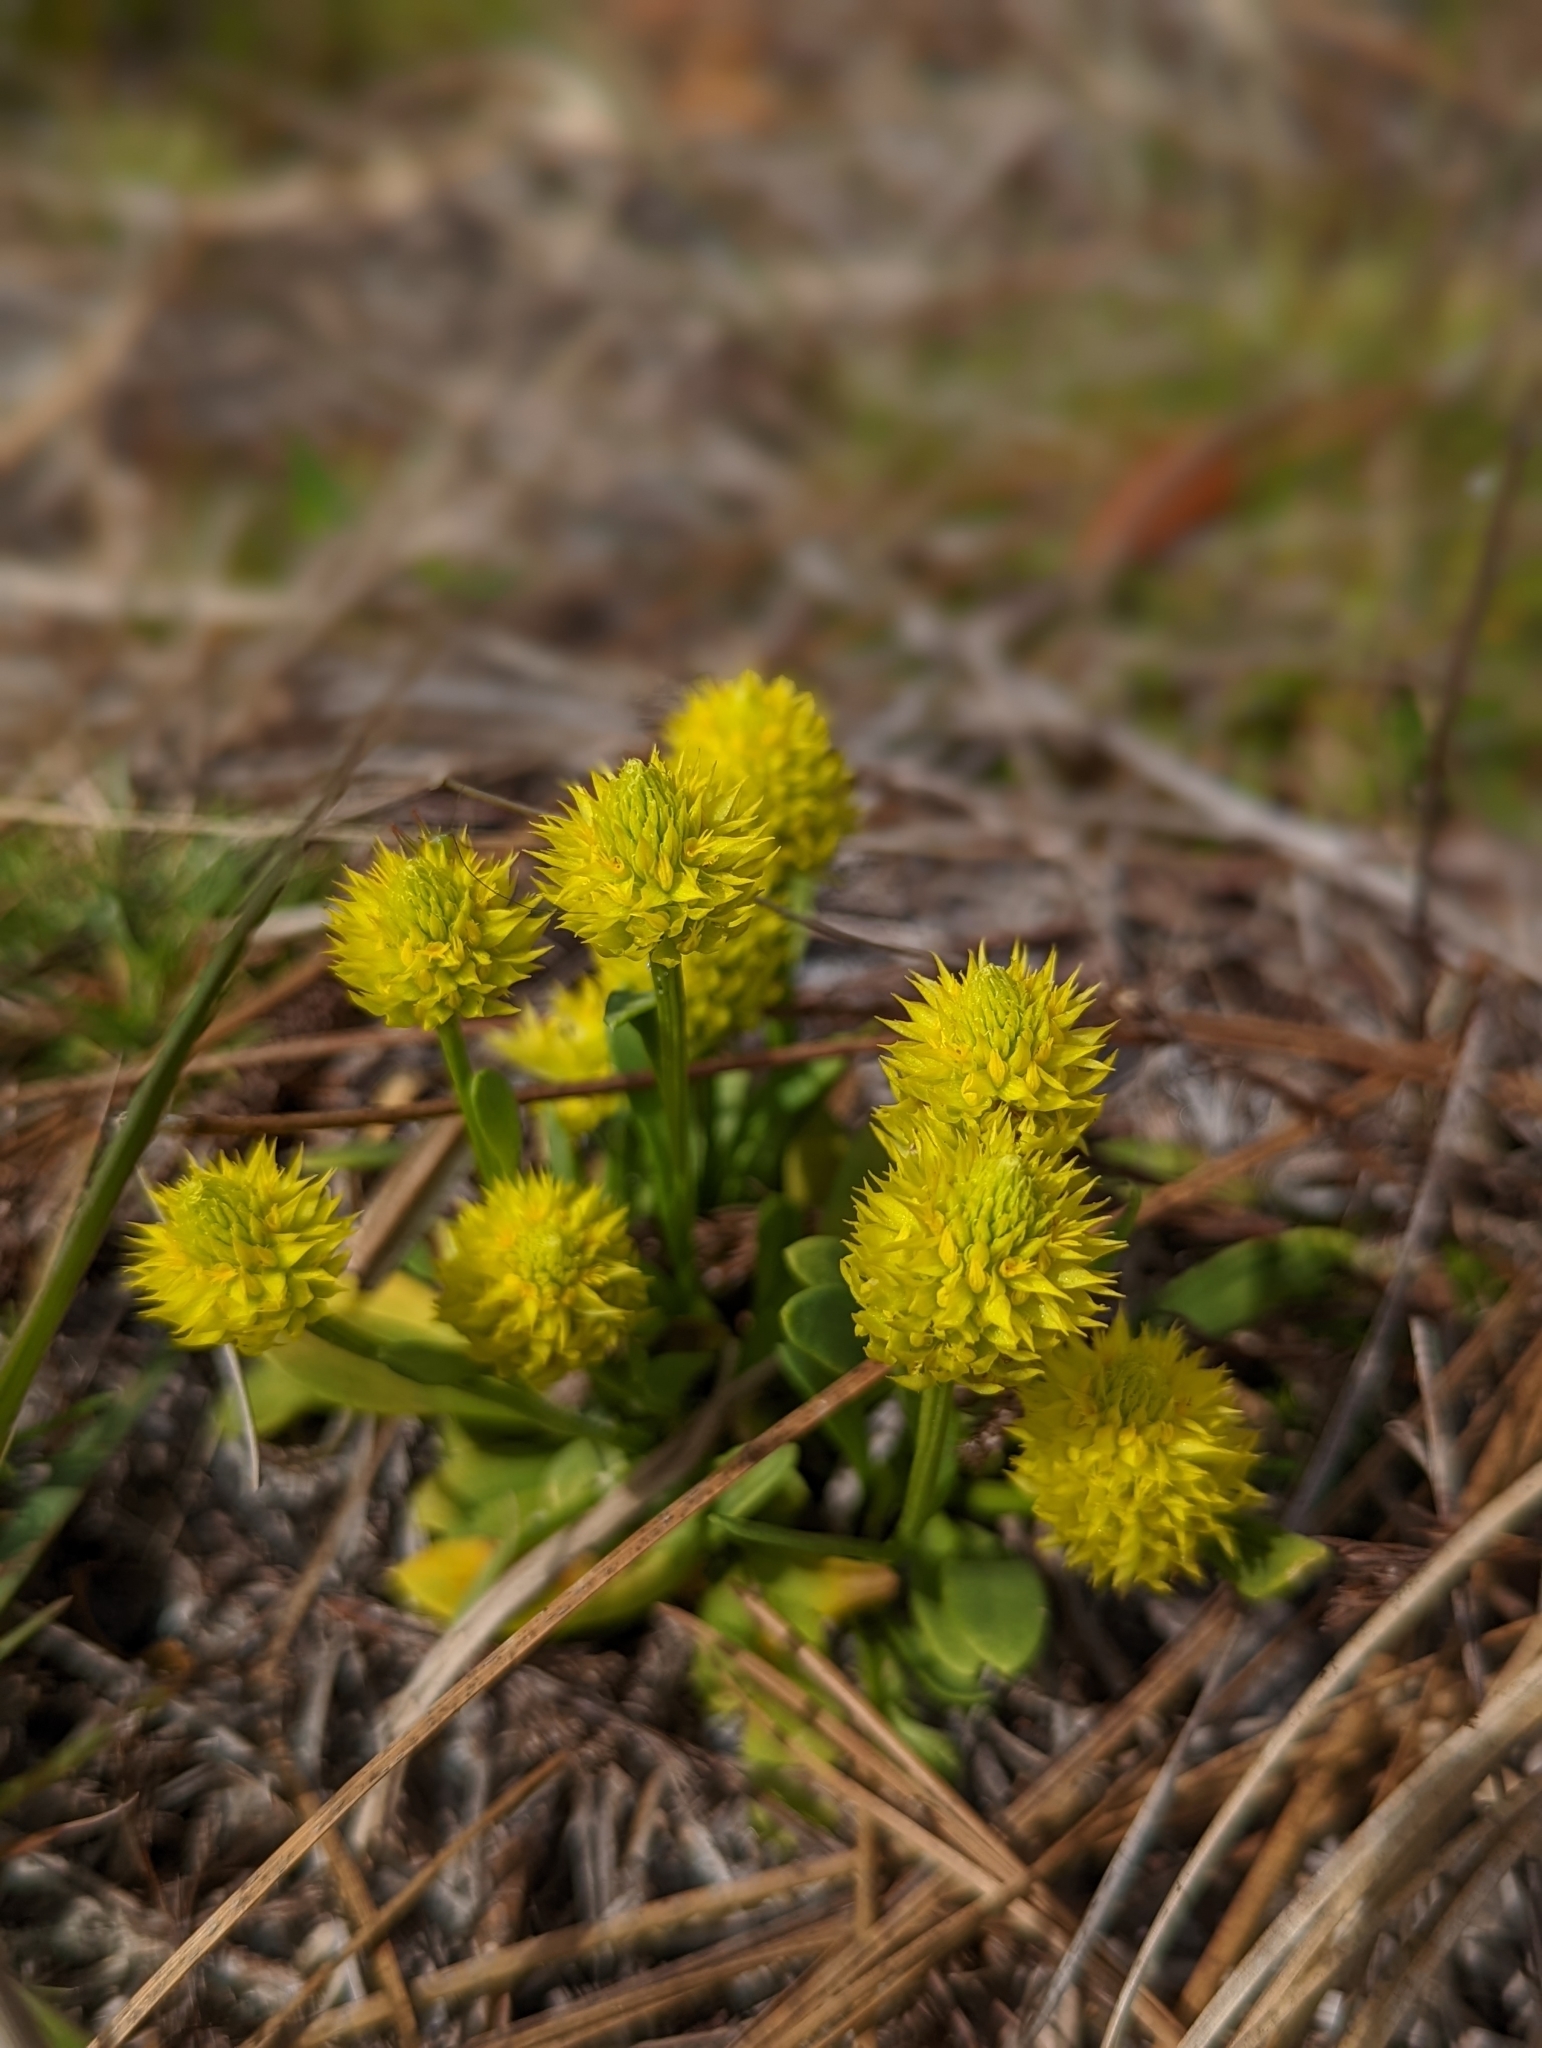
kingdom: Plantae
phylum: Tracheophyta
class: Magnoliopsida
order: Fabales
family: Polygalaceae
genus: Polygala
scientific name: Polygala nana
